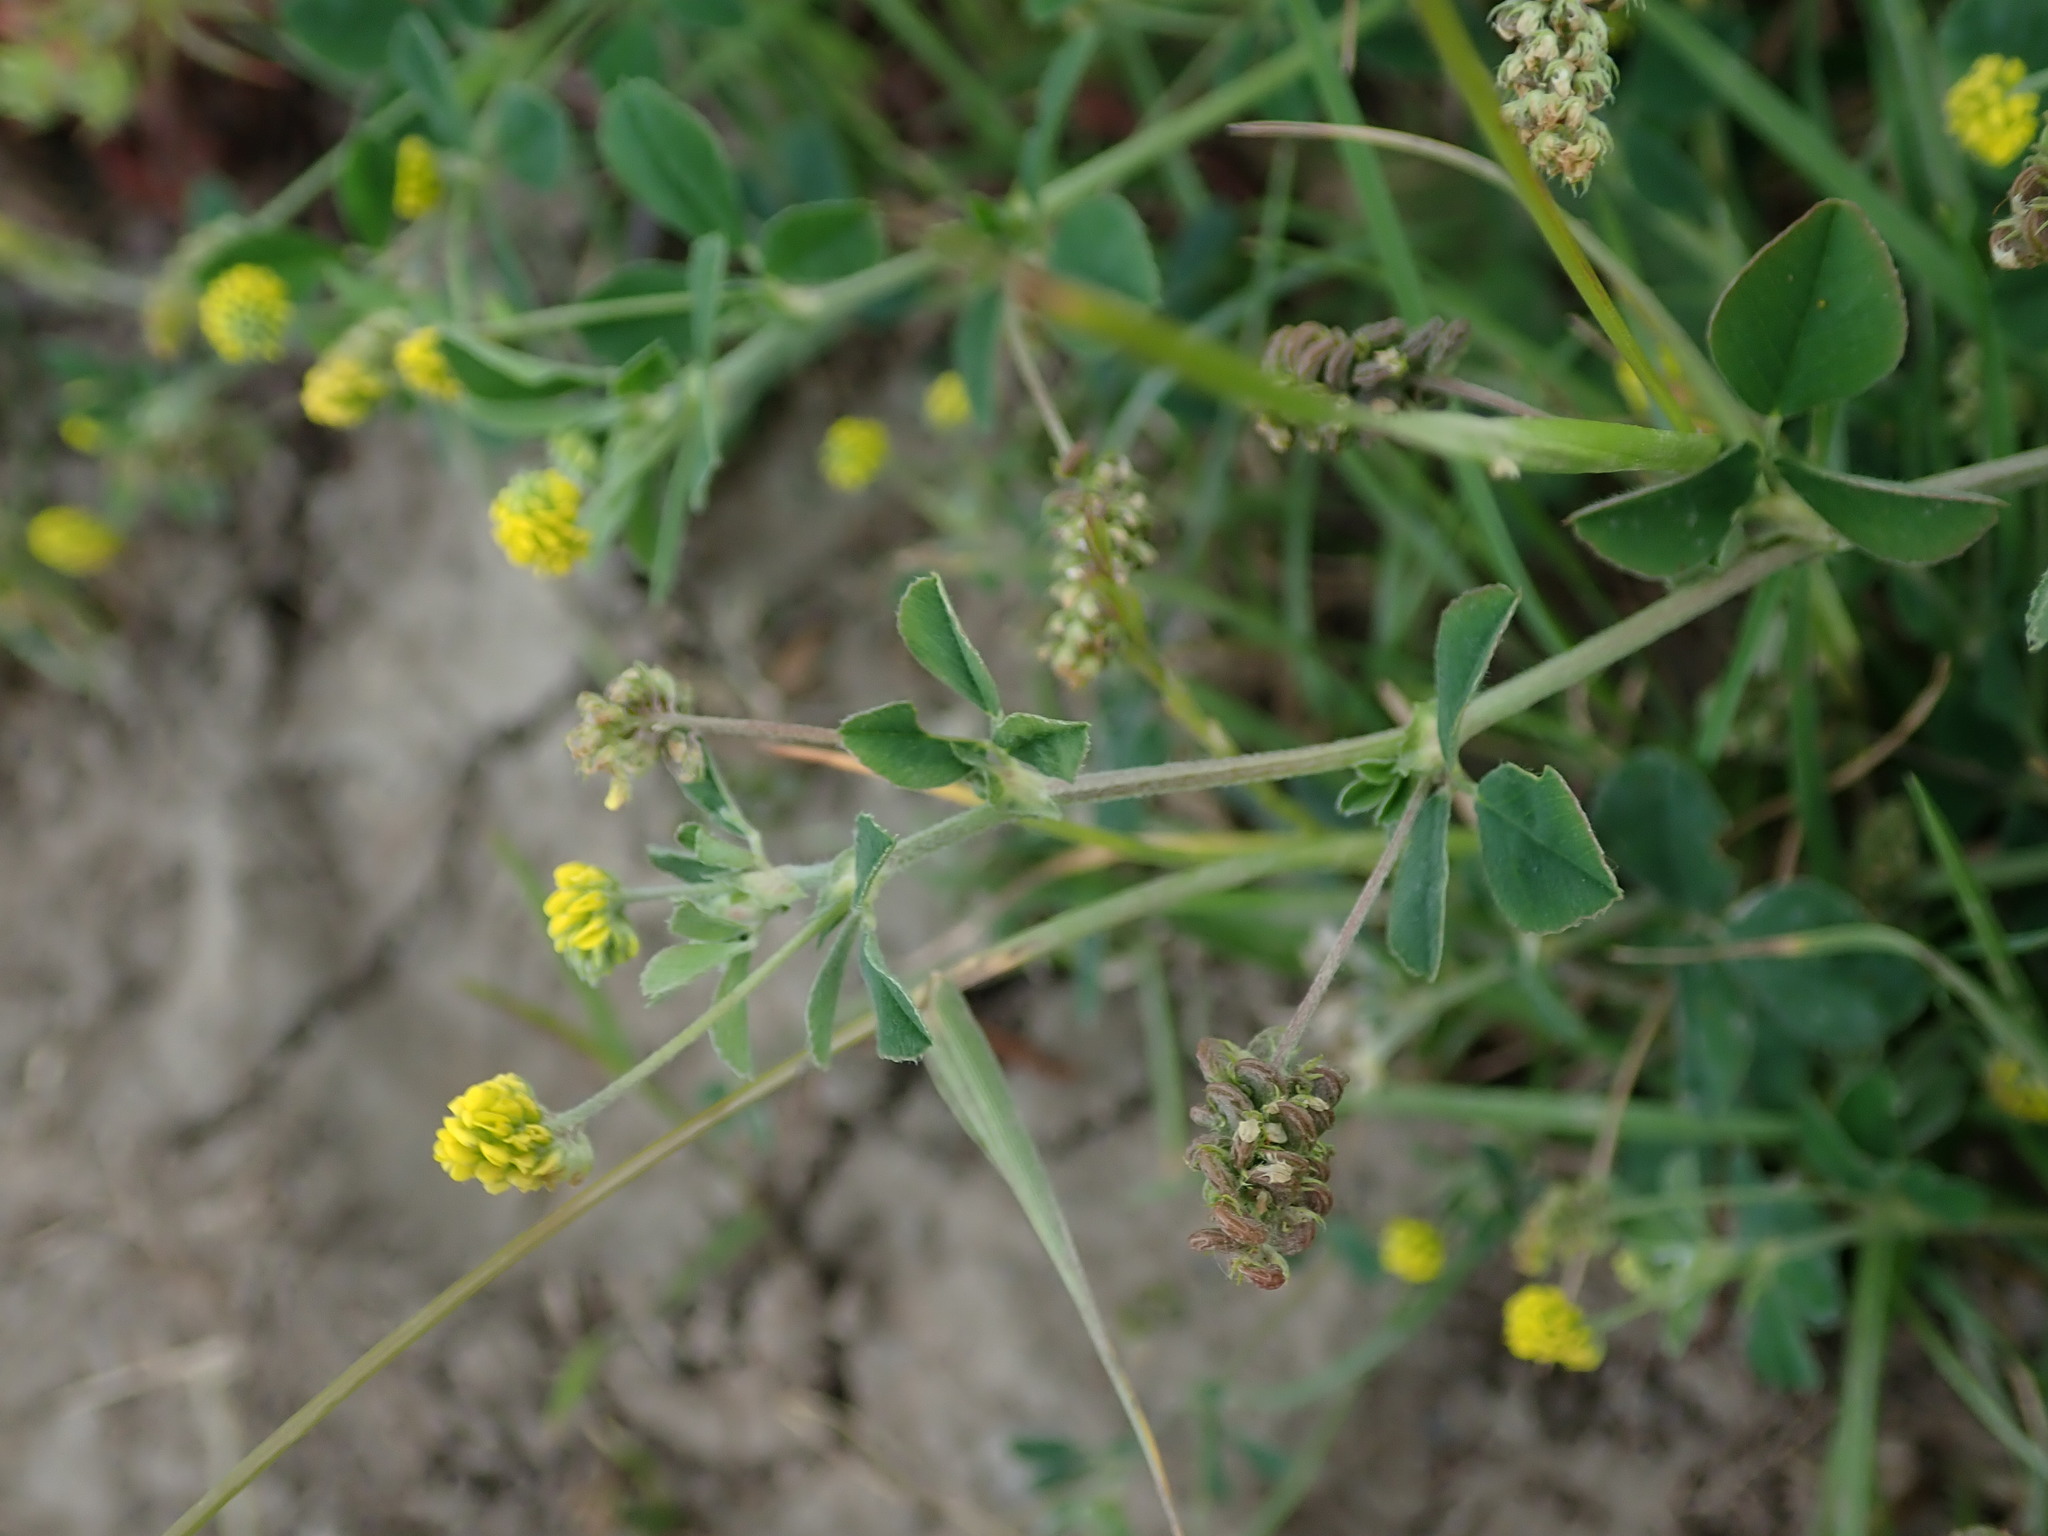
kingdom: Plantae
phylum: Tracheophyta
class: Magnoliopsida
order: Fabales
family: Fabaceae
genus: Medicago
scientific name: Medicago lupulina
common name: Black medick
